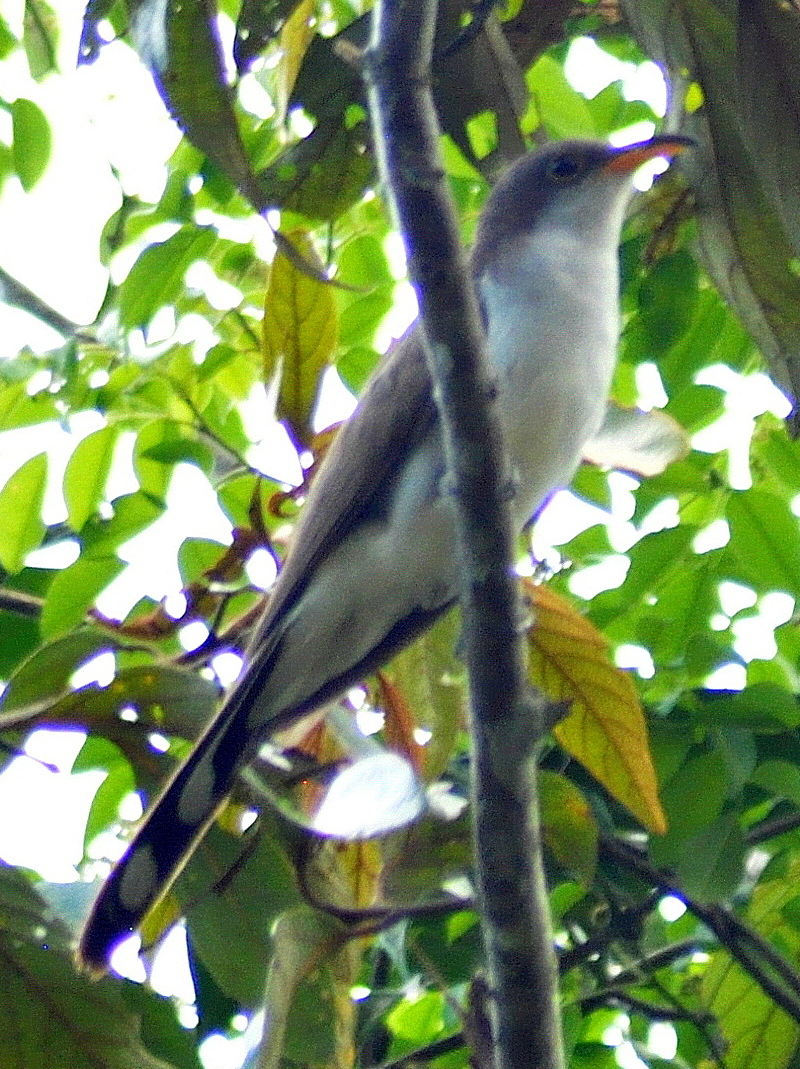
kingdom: Animalia
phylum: Chordata
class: Aves
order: Cuculiformes
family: Cuculidae
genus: Coccyzus
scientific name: Coccyzus euleri
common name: Pearly-breasted cuckoo
